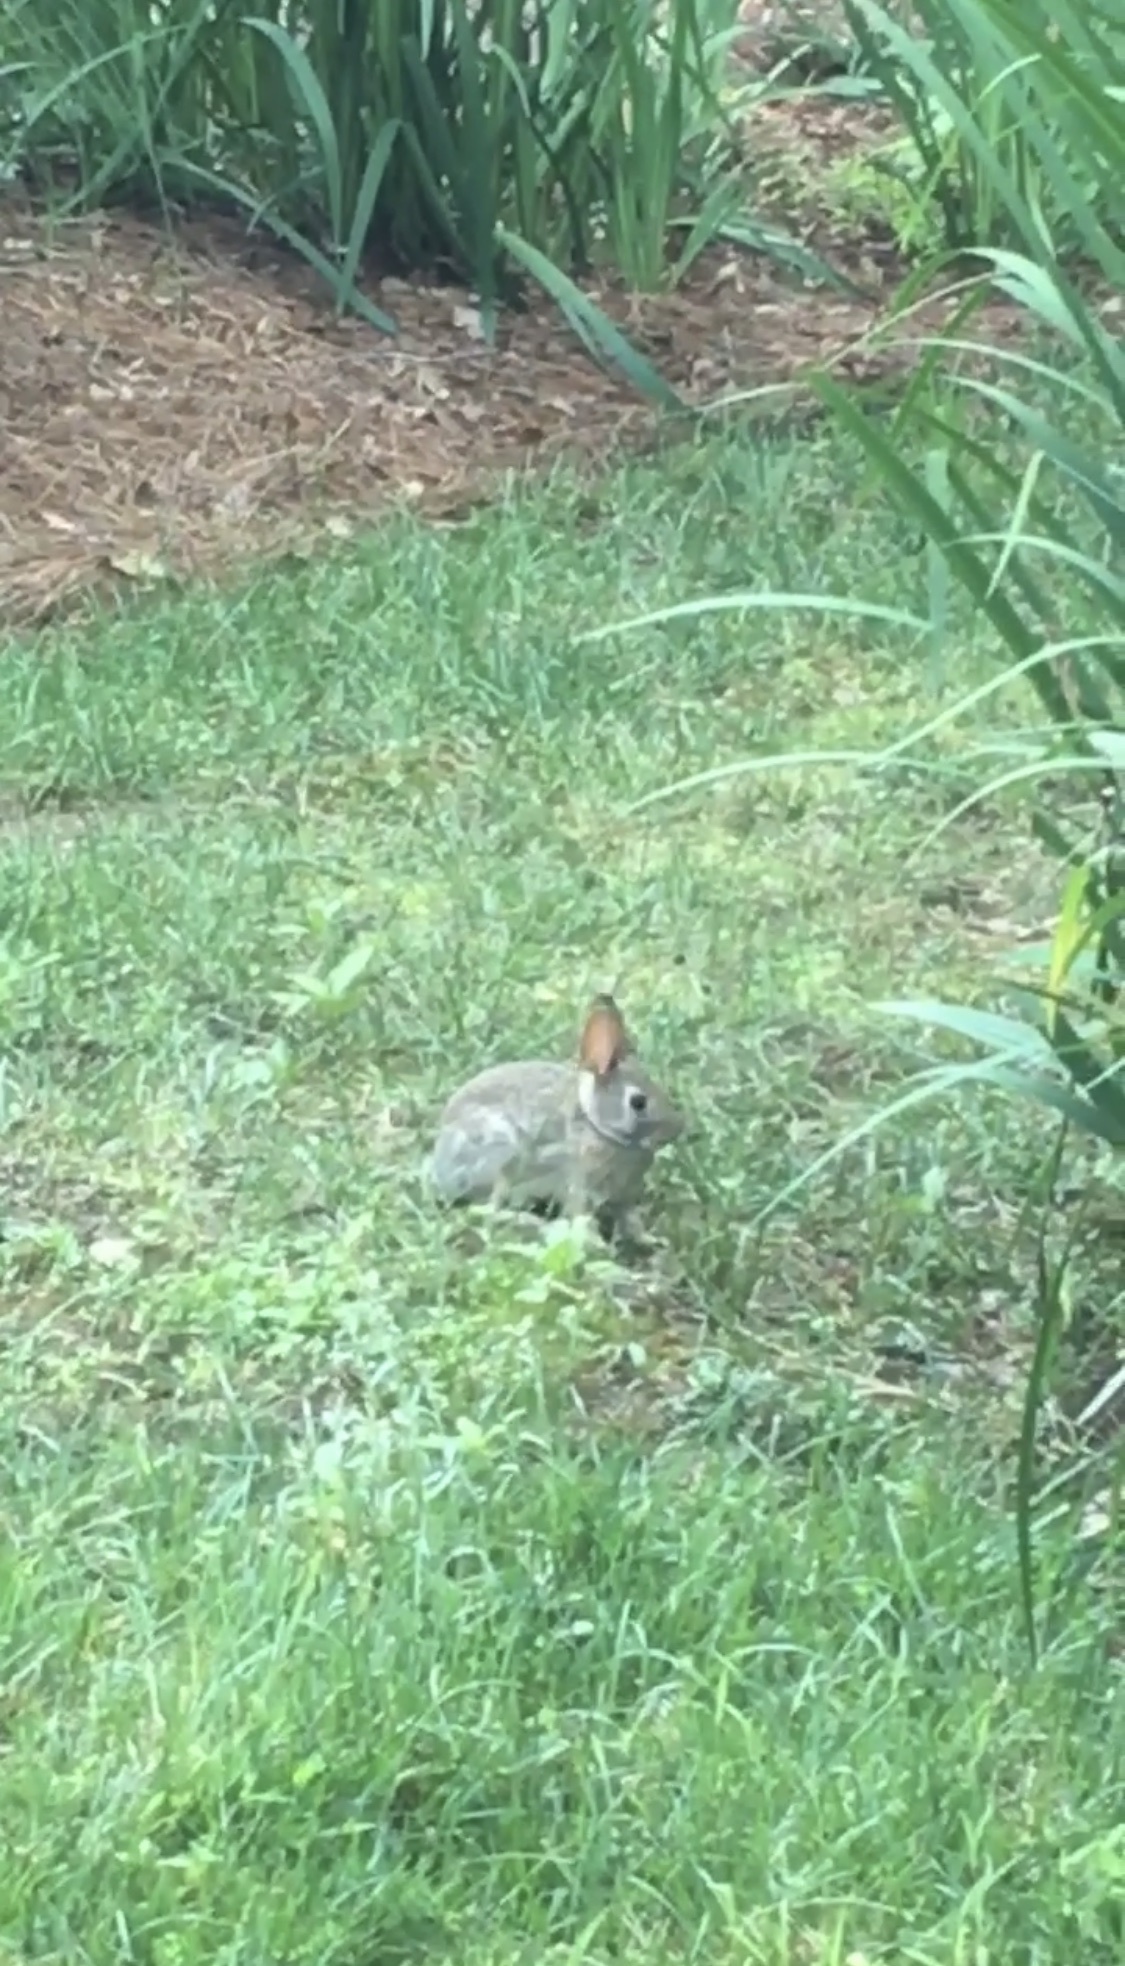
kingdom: Animalia
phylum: Chordata
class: Mammalia
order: Lagomorpha
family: Leporidae
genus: Sylvilagus
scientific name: Sylvilagus floridanus
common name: Eastern cottontail
